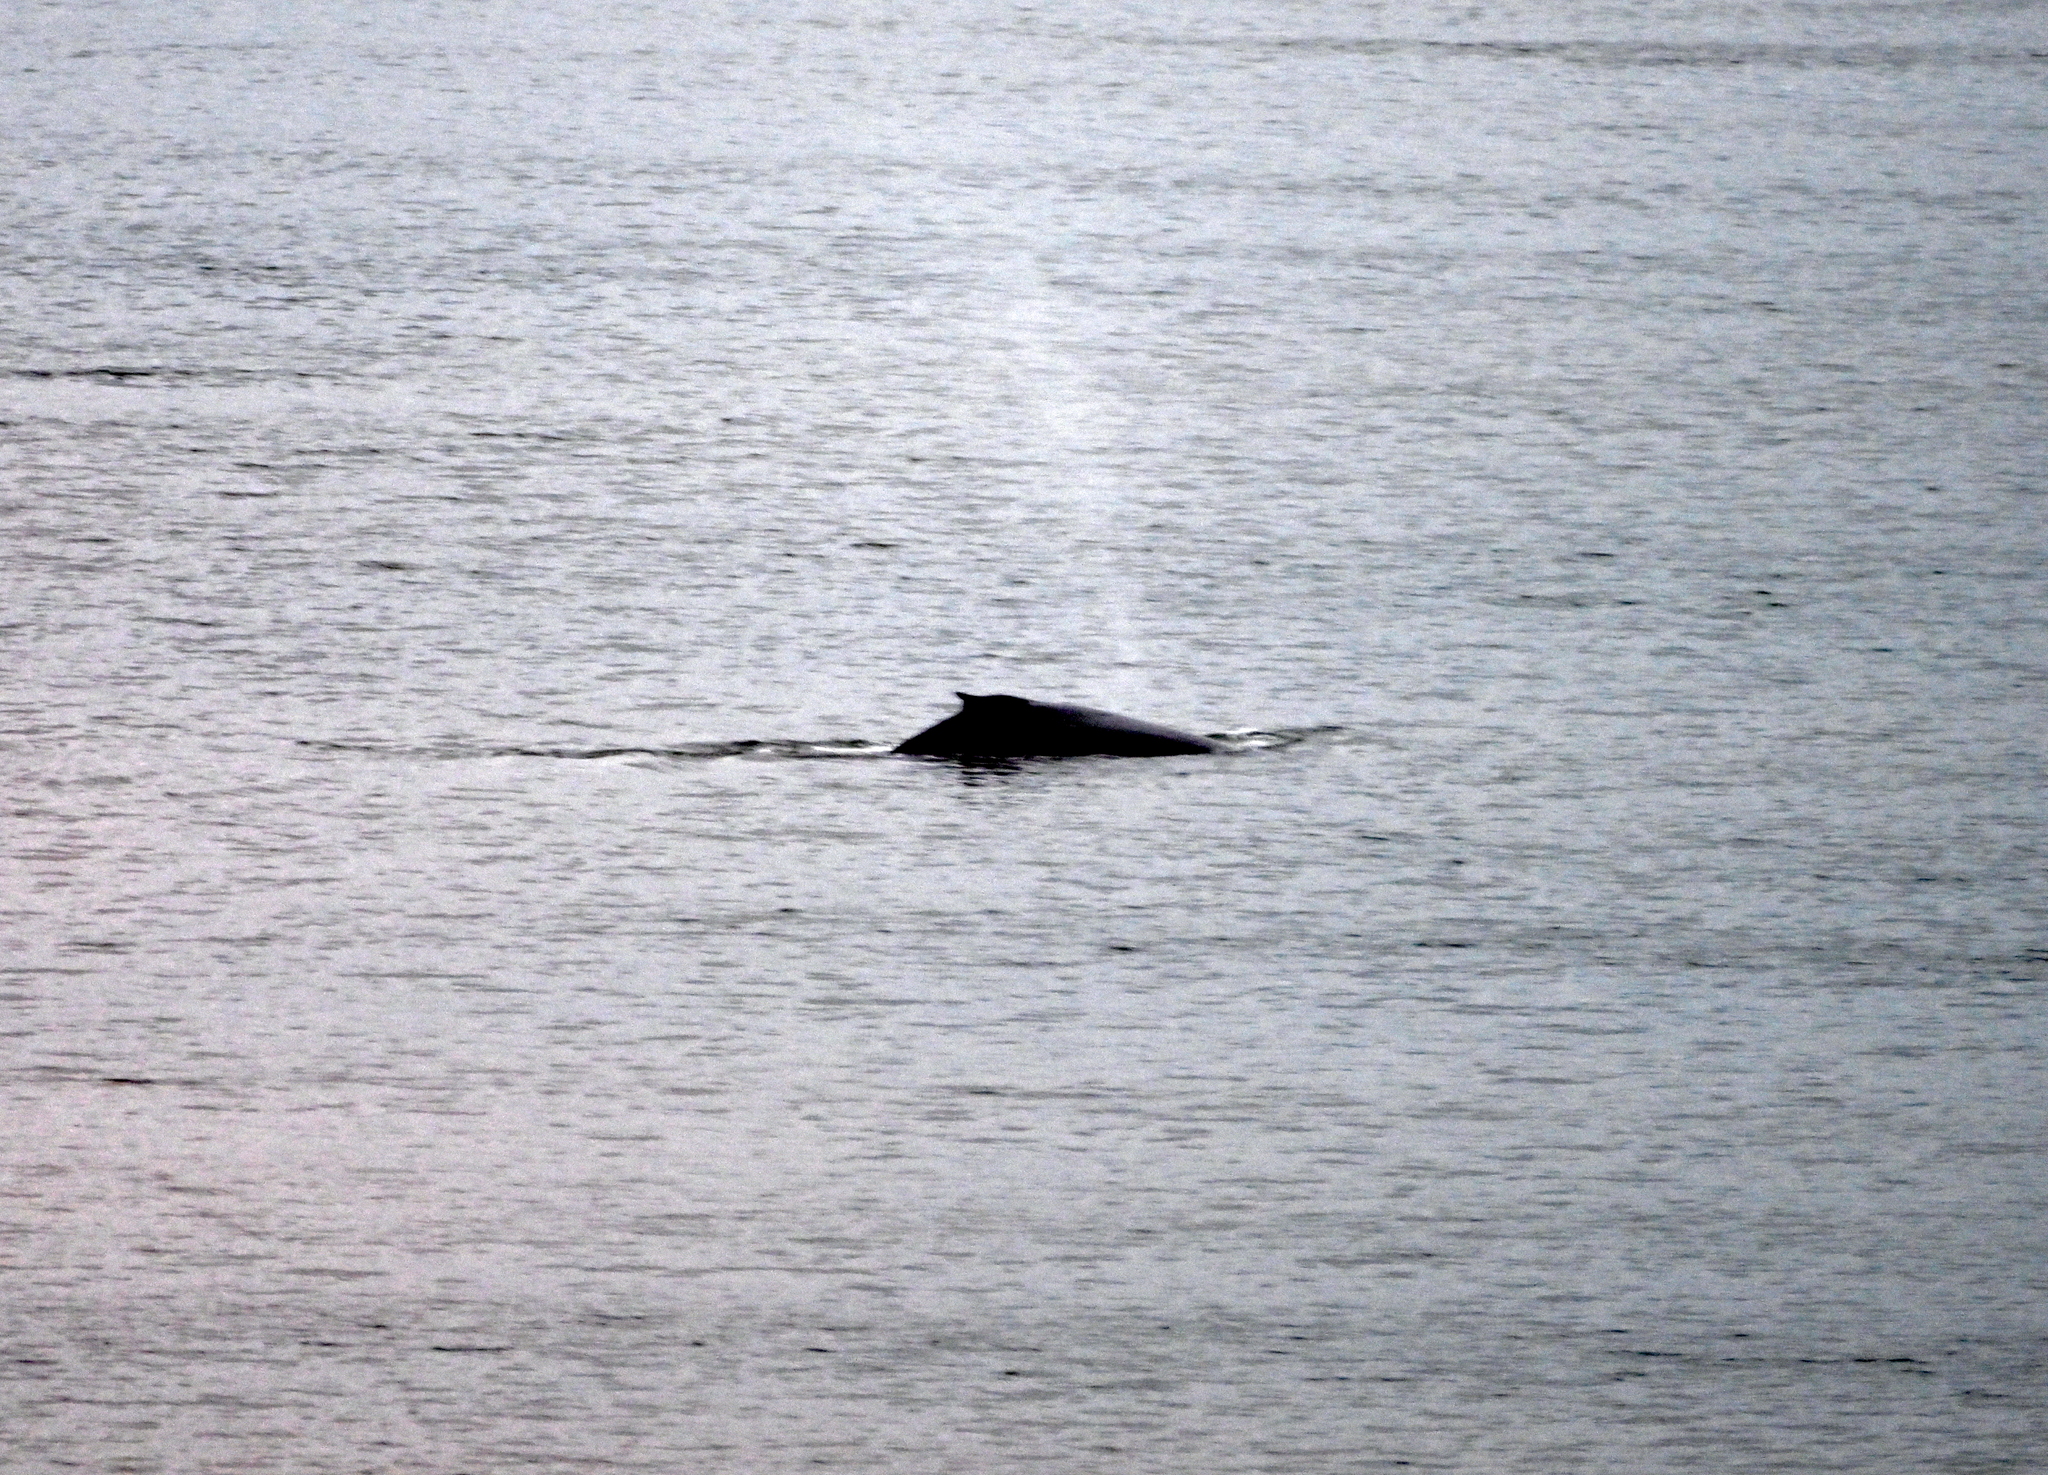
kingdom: Animalia
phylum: Chordata
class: Mammalia
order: Cetacea
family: Balaenopteridae
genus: Megaptera
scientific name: Megaptera novaeangliae
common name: Humpback whale
